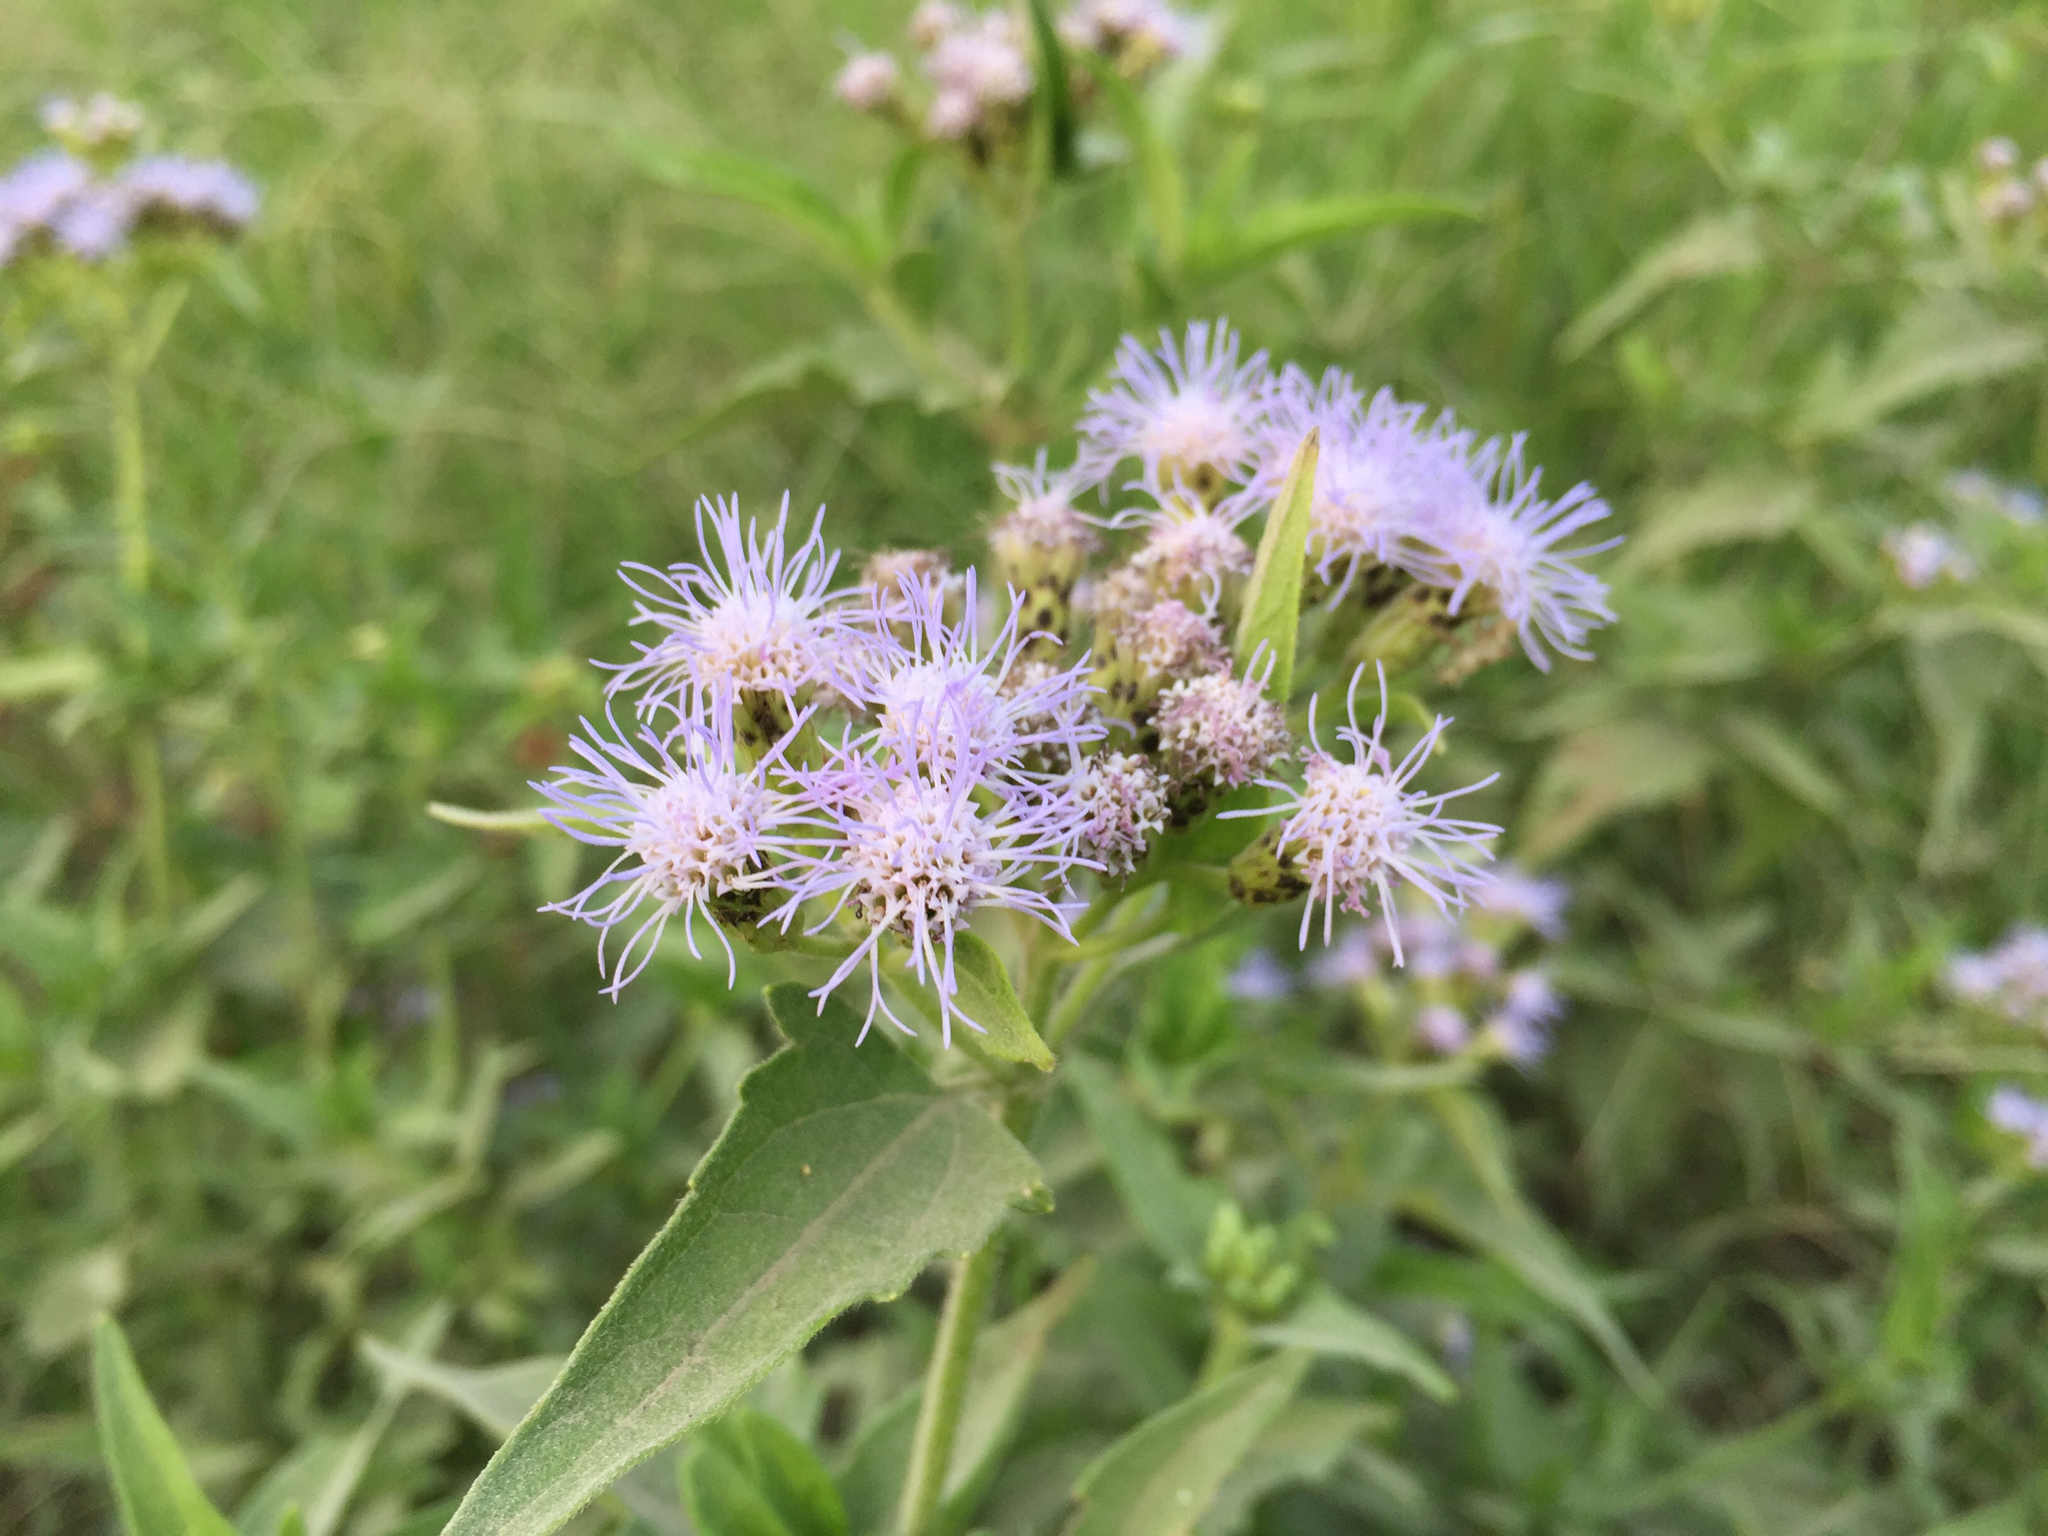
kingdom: Plantae
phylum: Tracheophyta
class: Magnoliopsida
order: Asterales
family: Asteraceae
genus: Chromolaena
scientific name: Chromolaena odorata
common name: Siamweed
